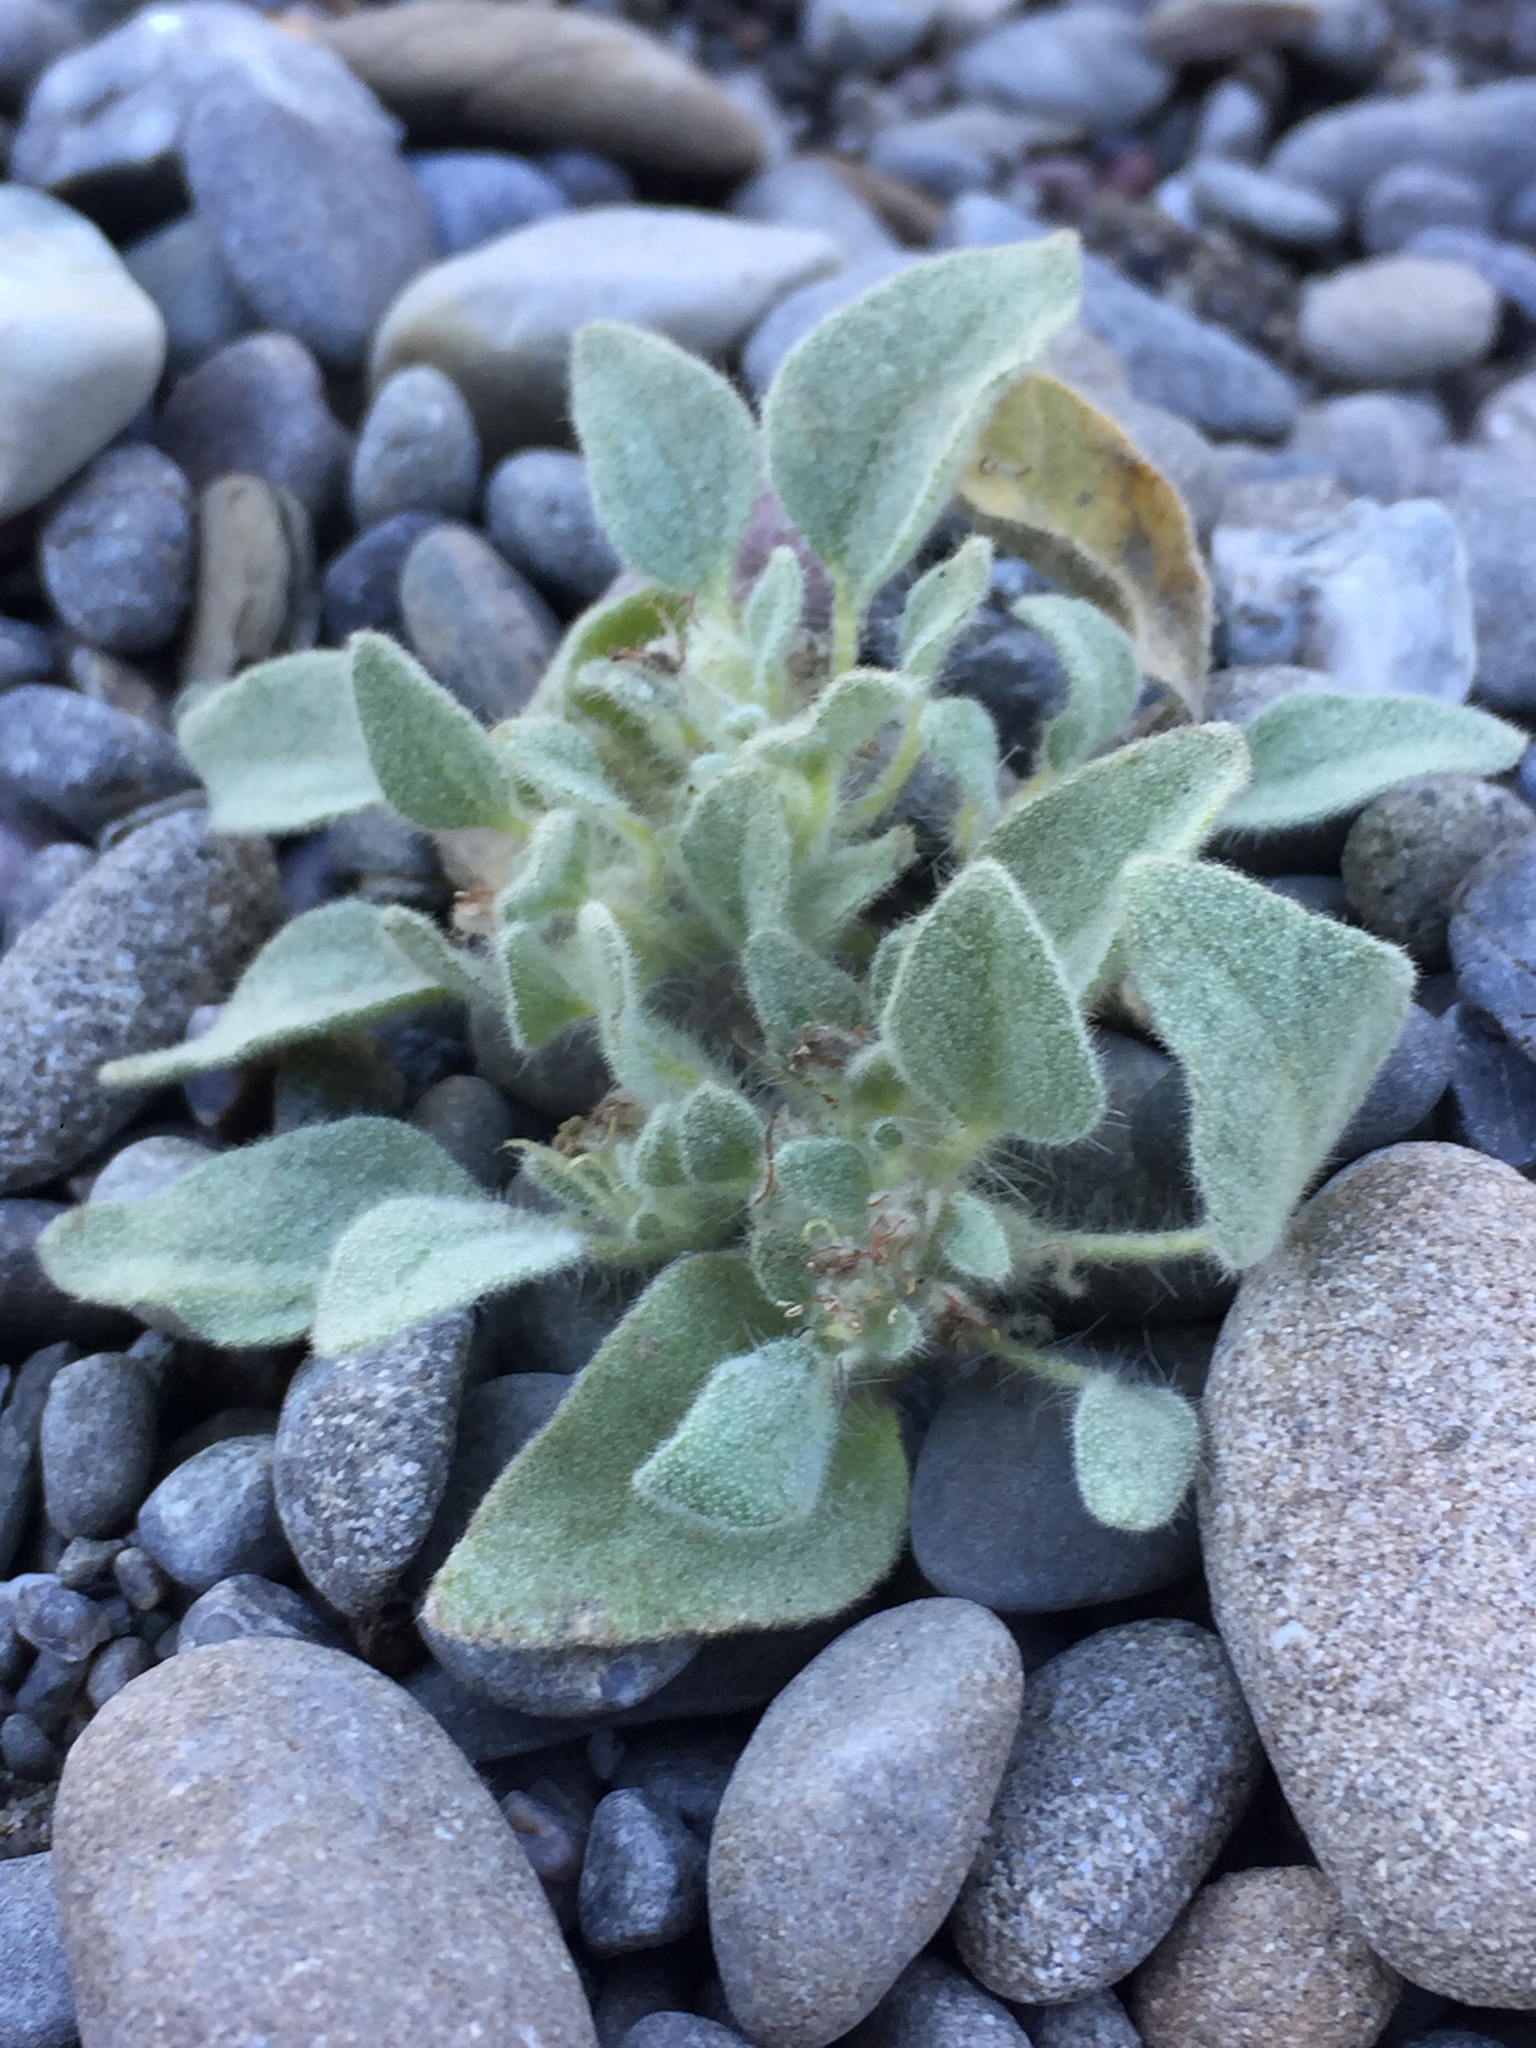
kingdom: Plantae
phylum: Tracheophyta
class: Magnoliopsida
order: Malpighiales
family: Euphorbiaceae
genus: Croton
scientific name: Croton setiger
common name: Dove weed
